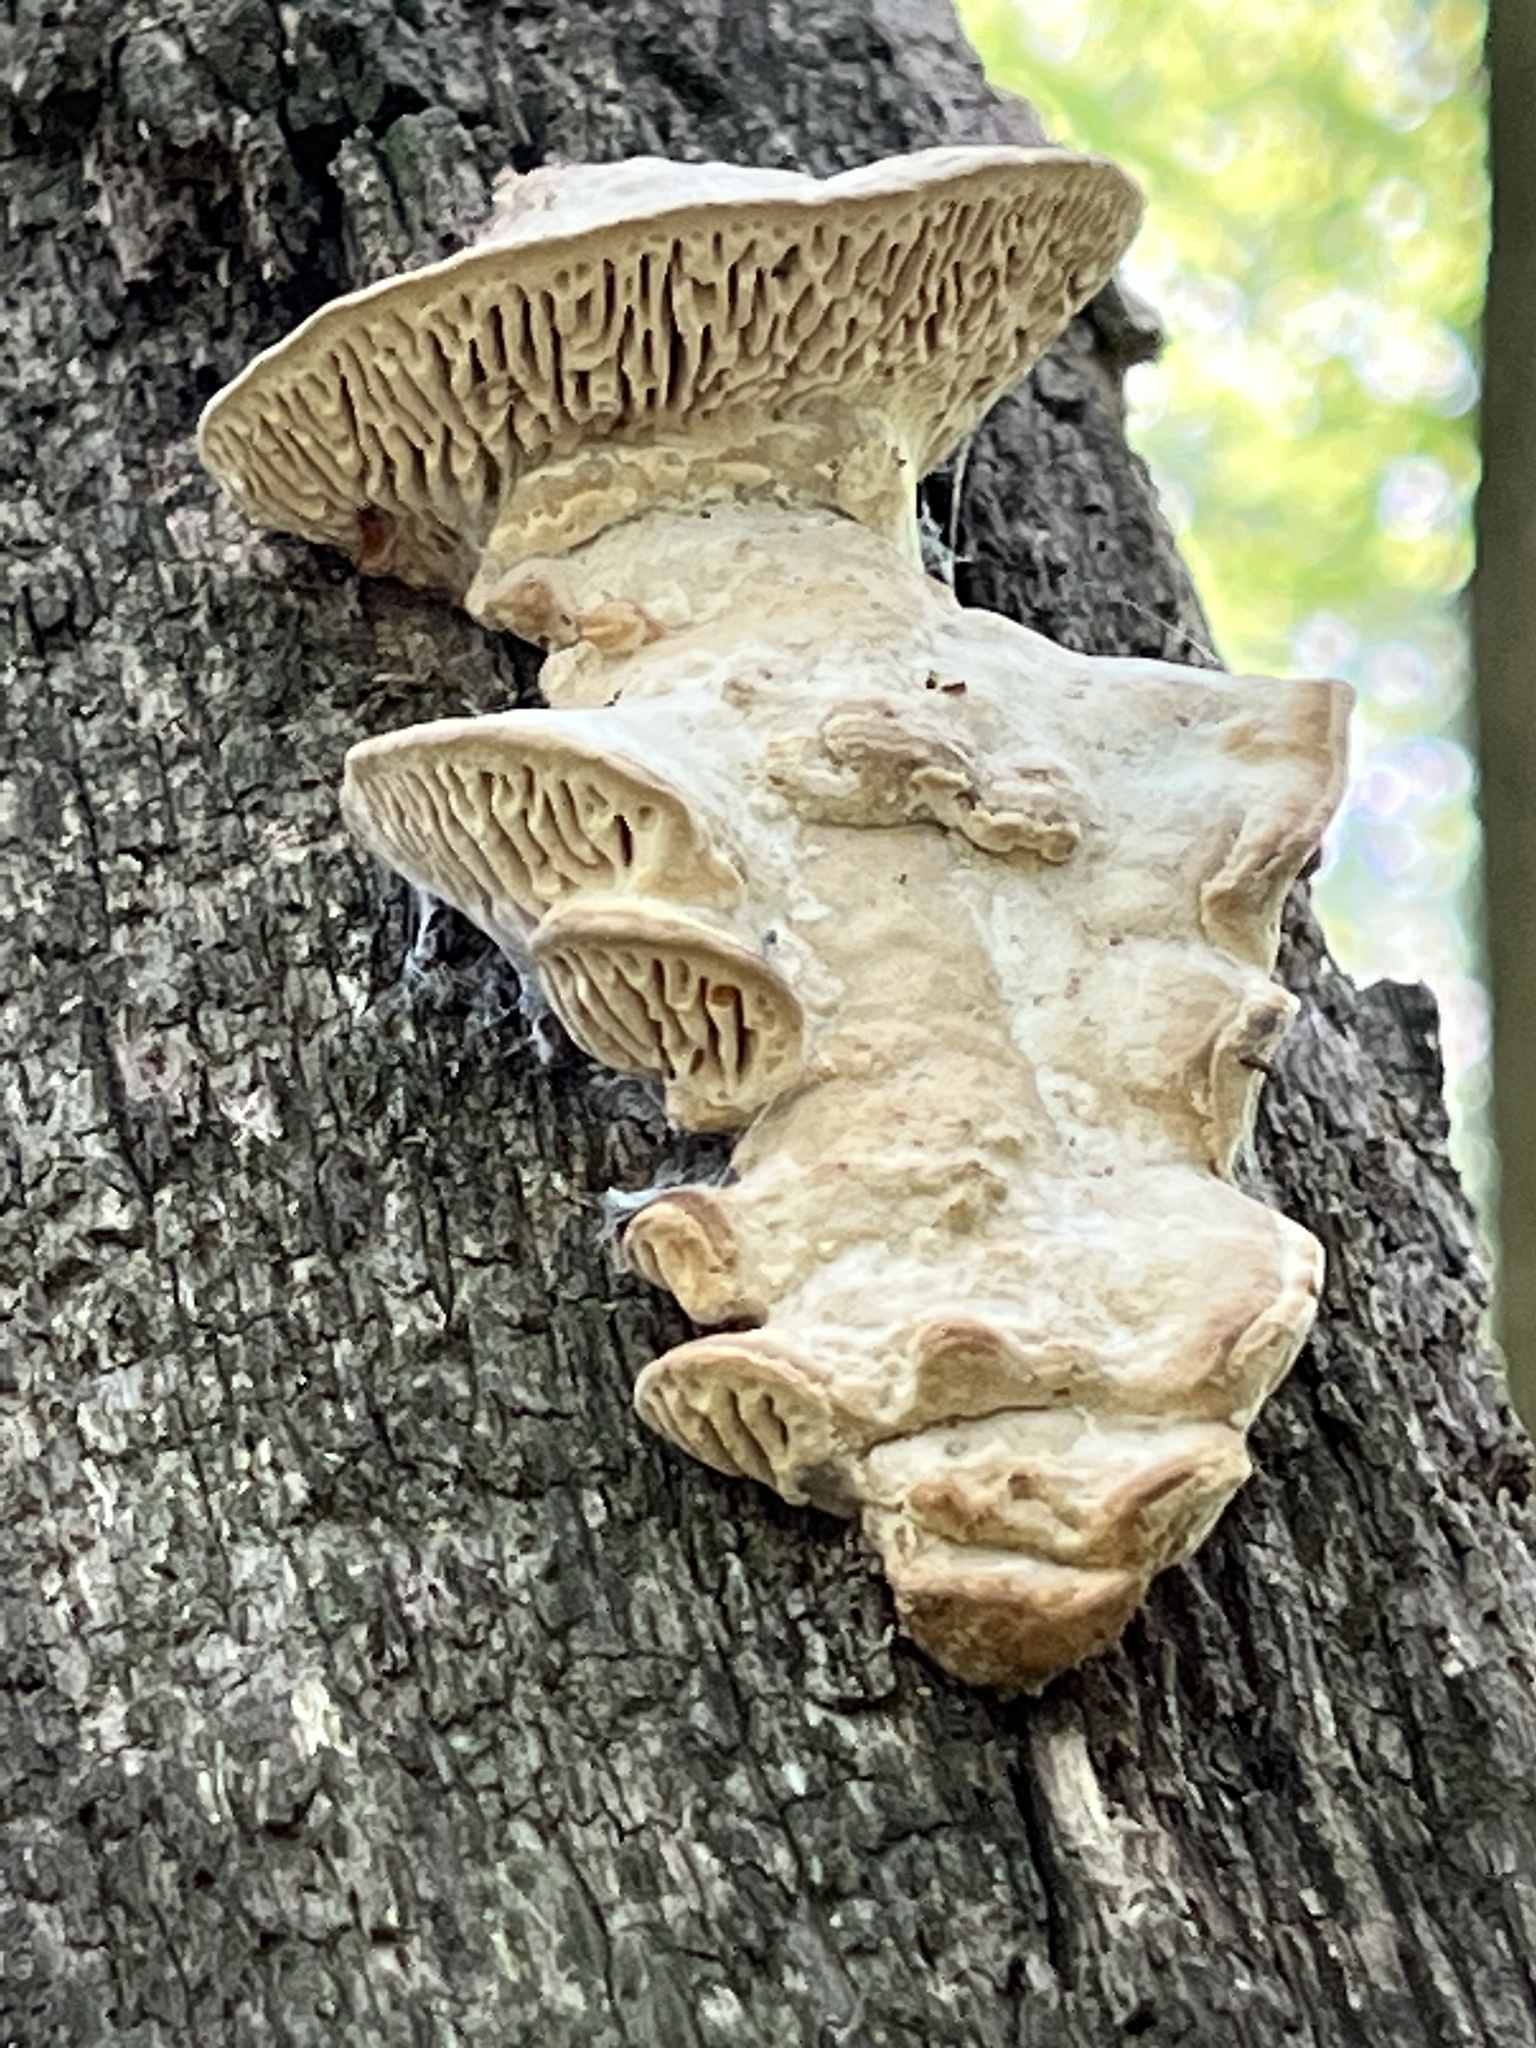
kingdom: Fungi
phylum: Basidiomycota
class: Agaricomycetes
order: Polyporales
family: Fomitopsidaceae
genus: Fomitopsis
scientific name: Fomitopsis
